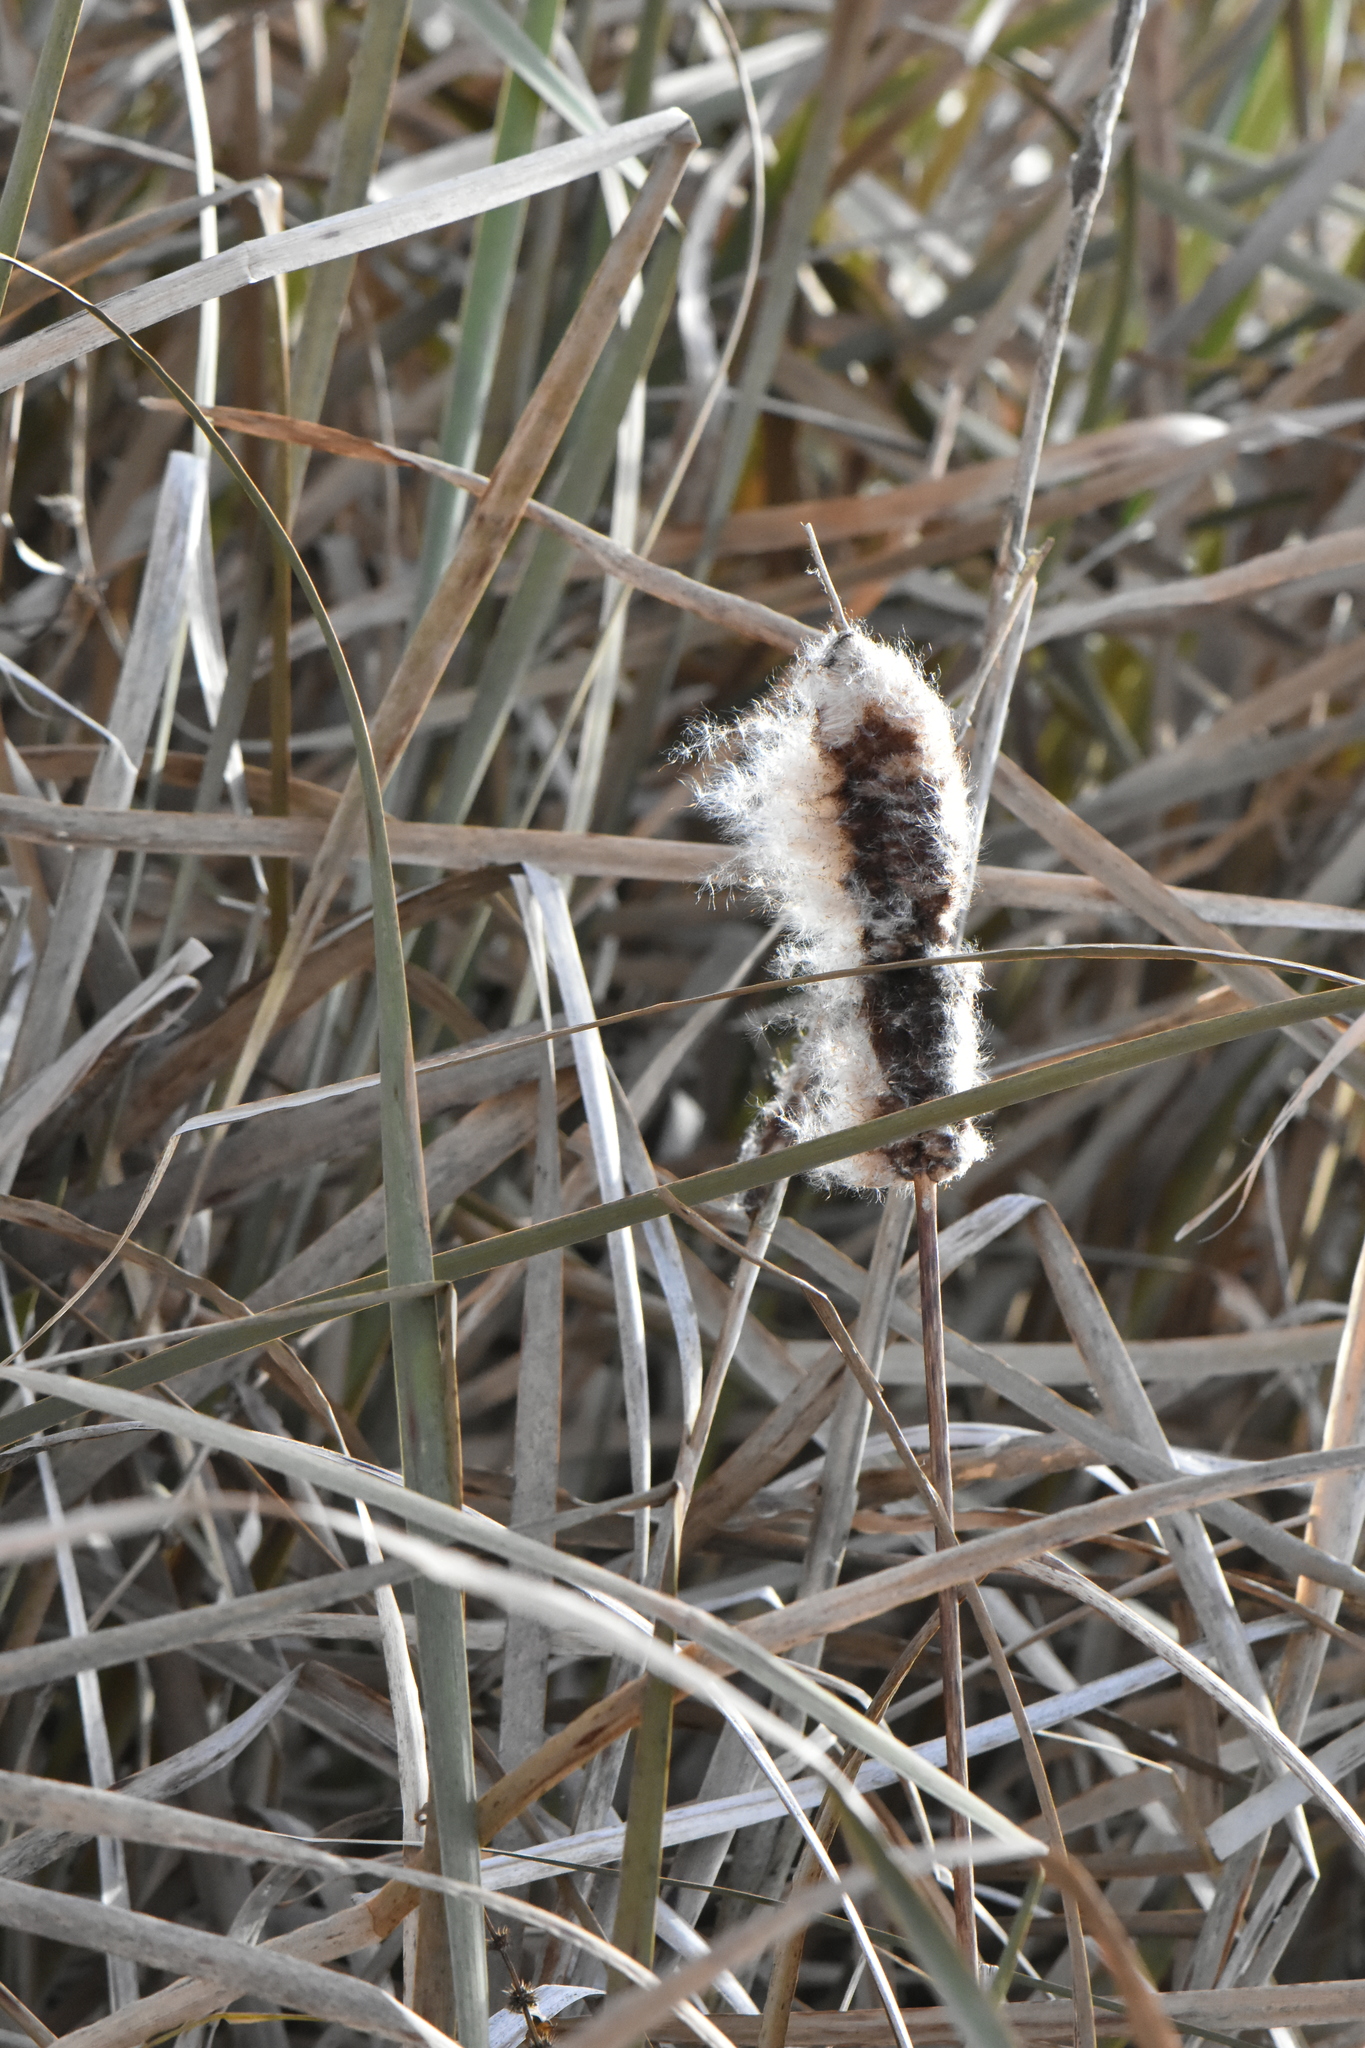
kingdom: Plantae
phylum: Tracheophyta
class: Liliopsida
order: Poales
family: Typhaceae
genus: Typha
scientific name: Typha latifolia
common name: Broadleaf cattail
